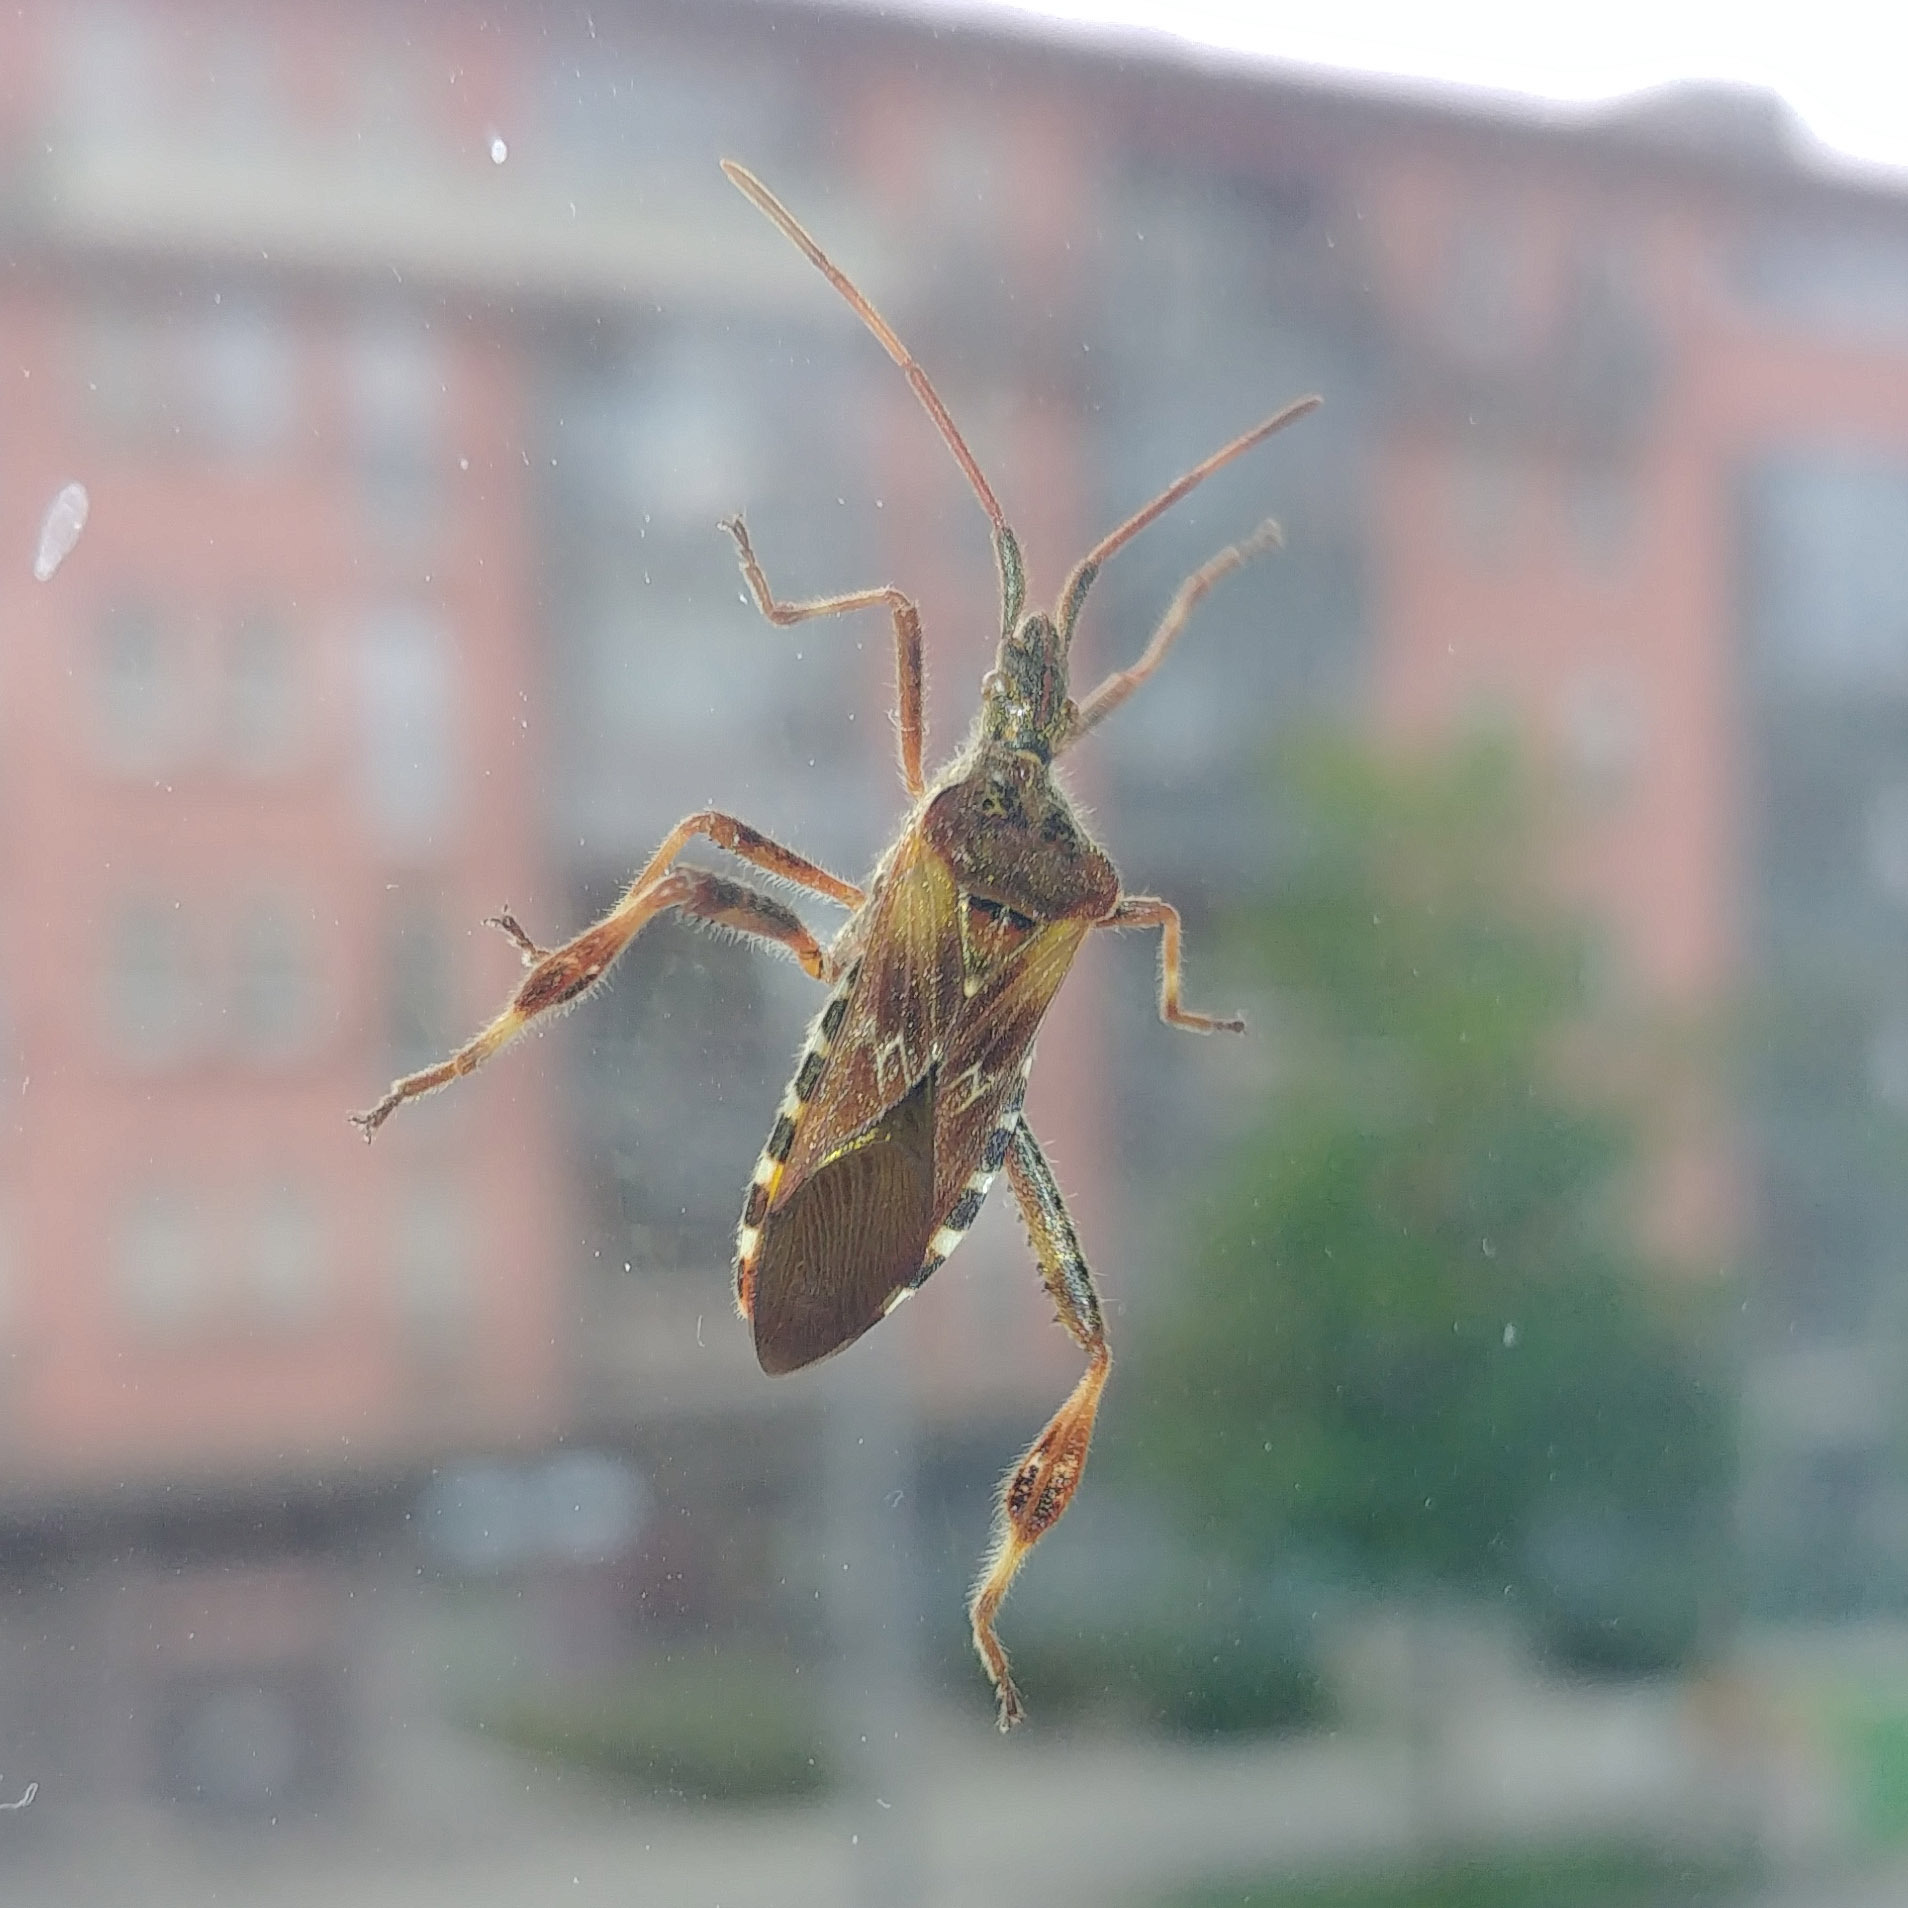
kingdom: Animalia
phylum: Arthropoda
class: Insecta
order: Hemiptera
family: Coreidae
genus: Leptoglossus
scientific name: Leptoglossus occidentalis
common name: Western conifer-seed bug
